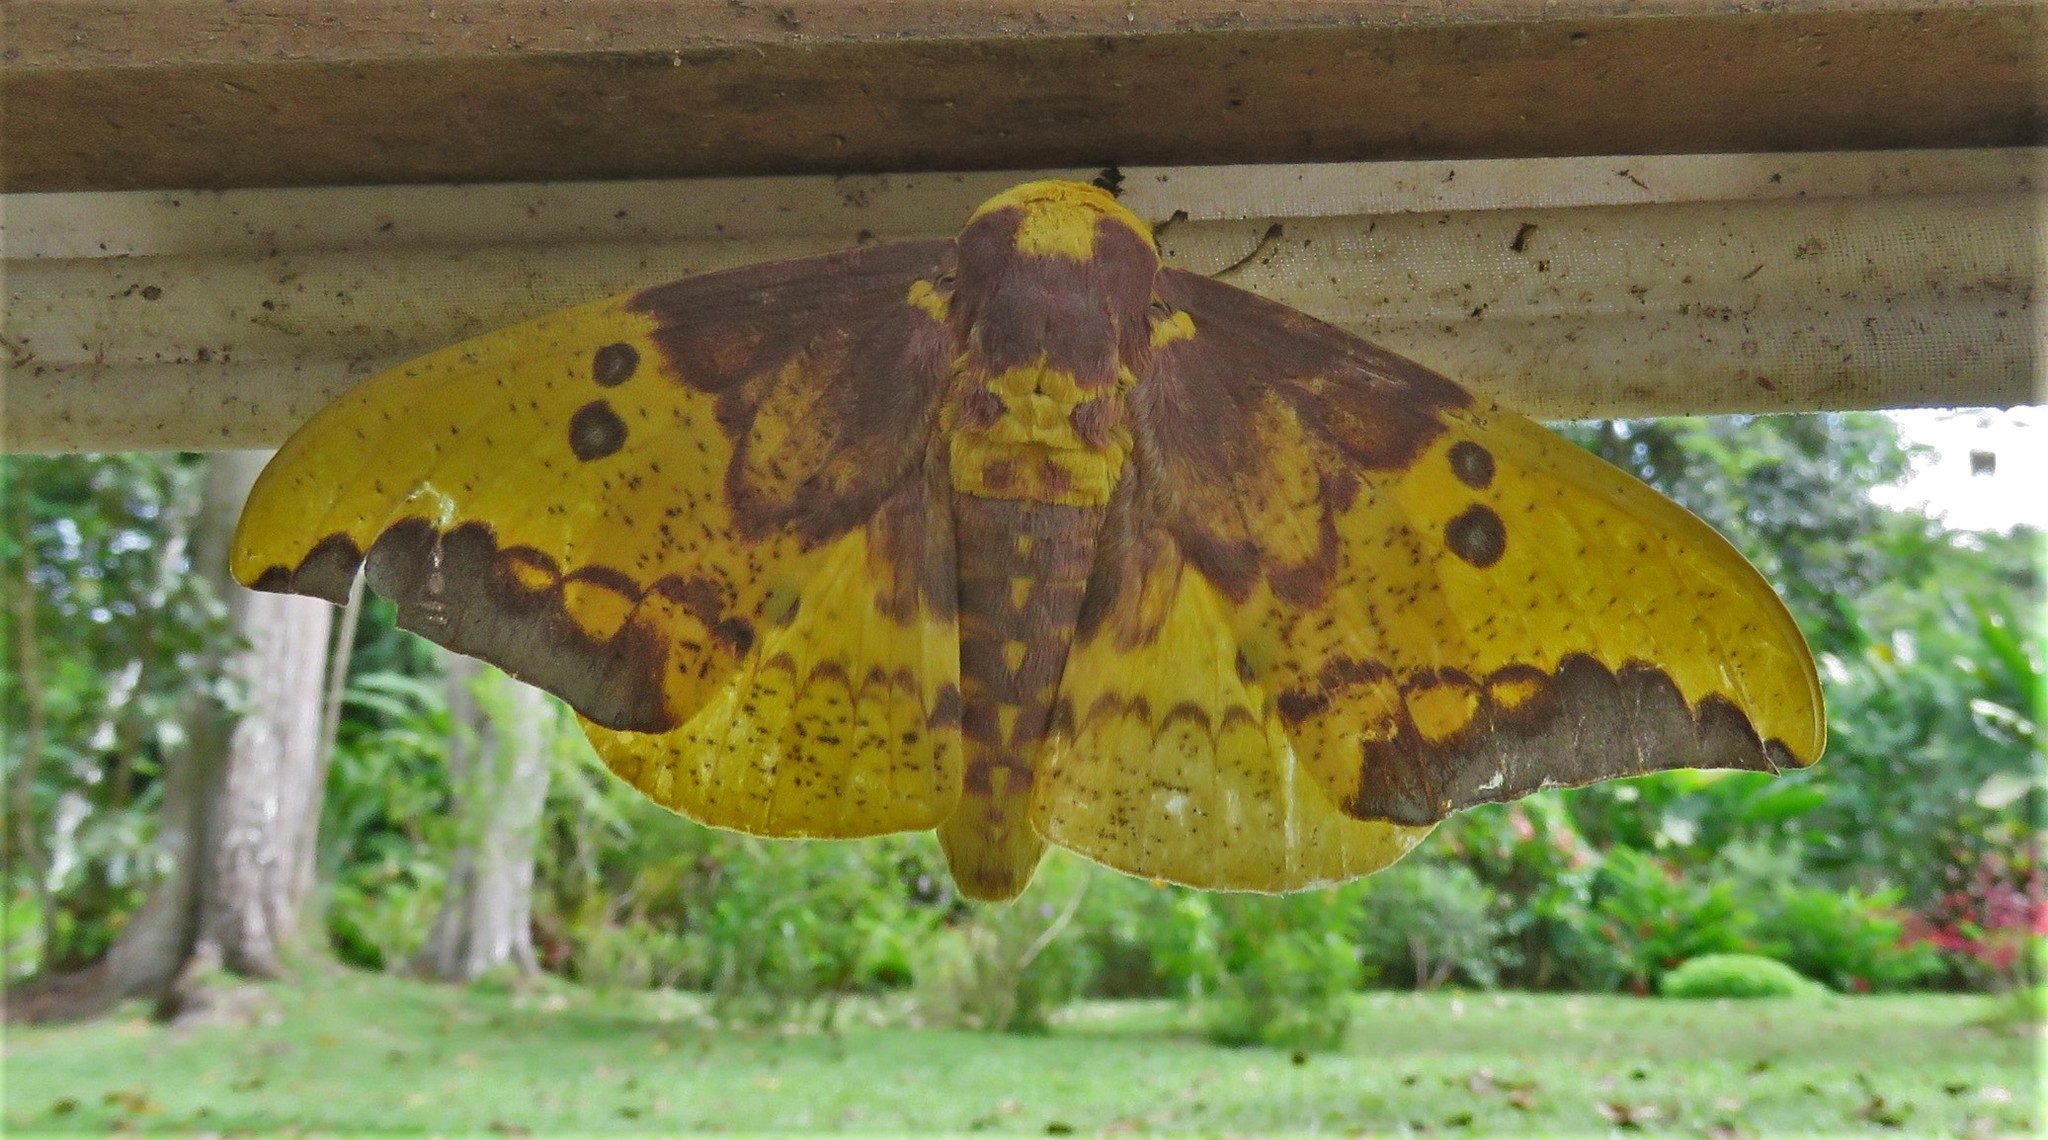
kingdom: Animalia
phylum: Arthropoda
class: Insecta
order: Lepidoptera
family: Saturniidae
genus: Eacles
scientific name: Eacles imperialis
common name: Imperial moth
